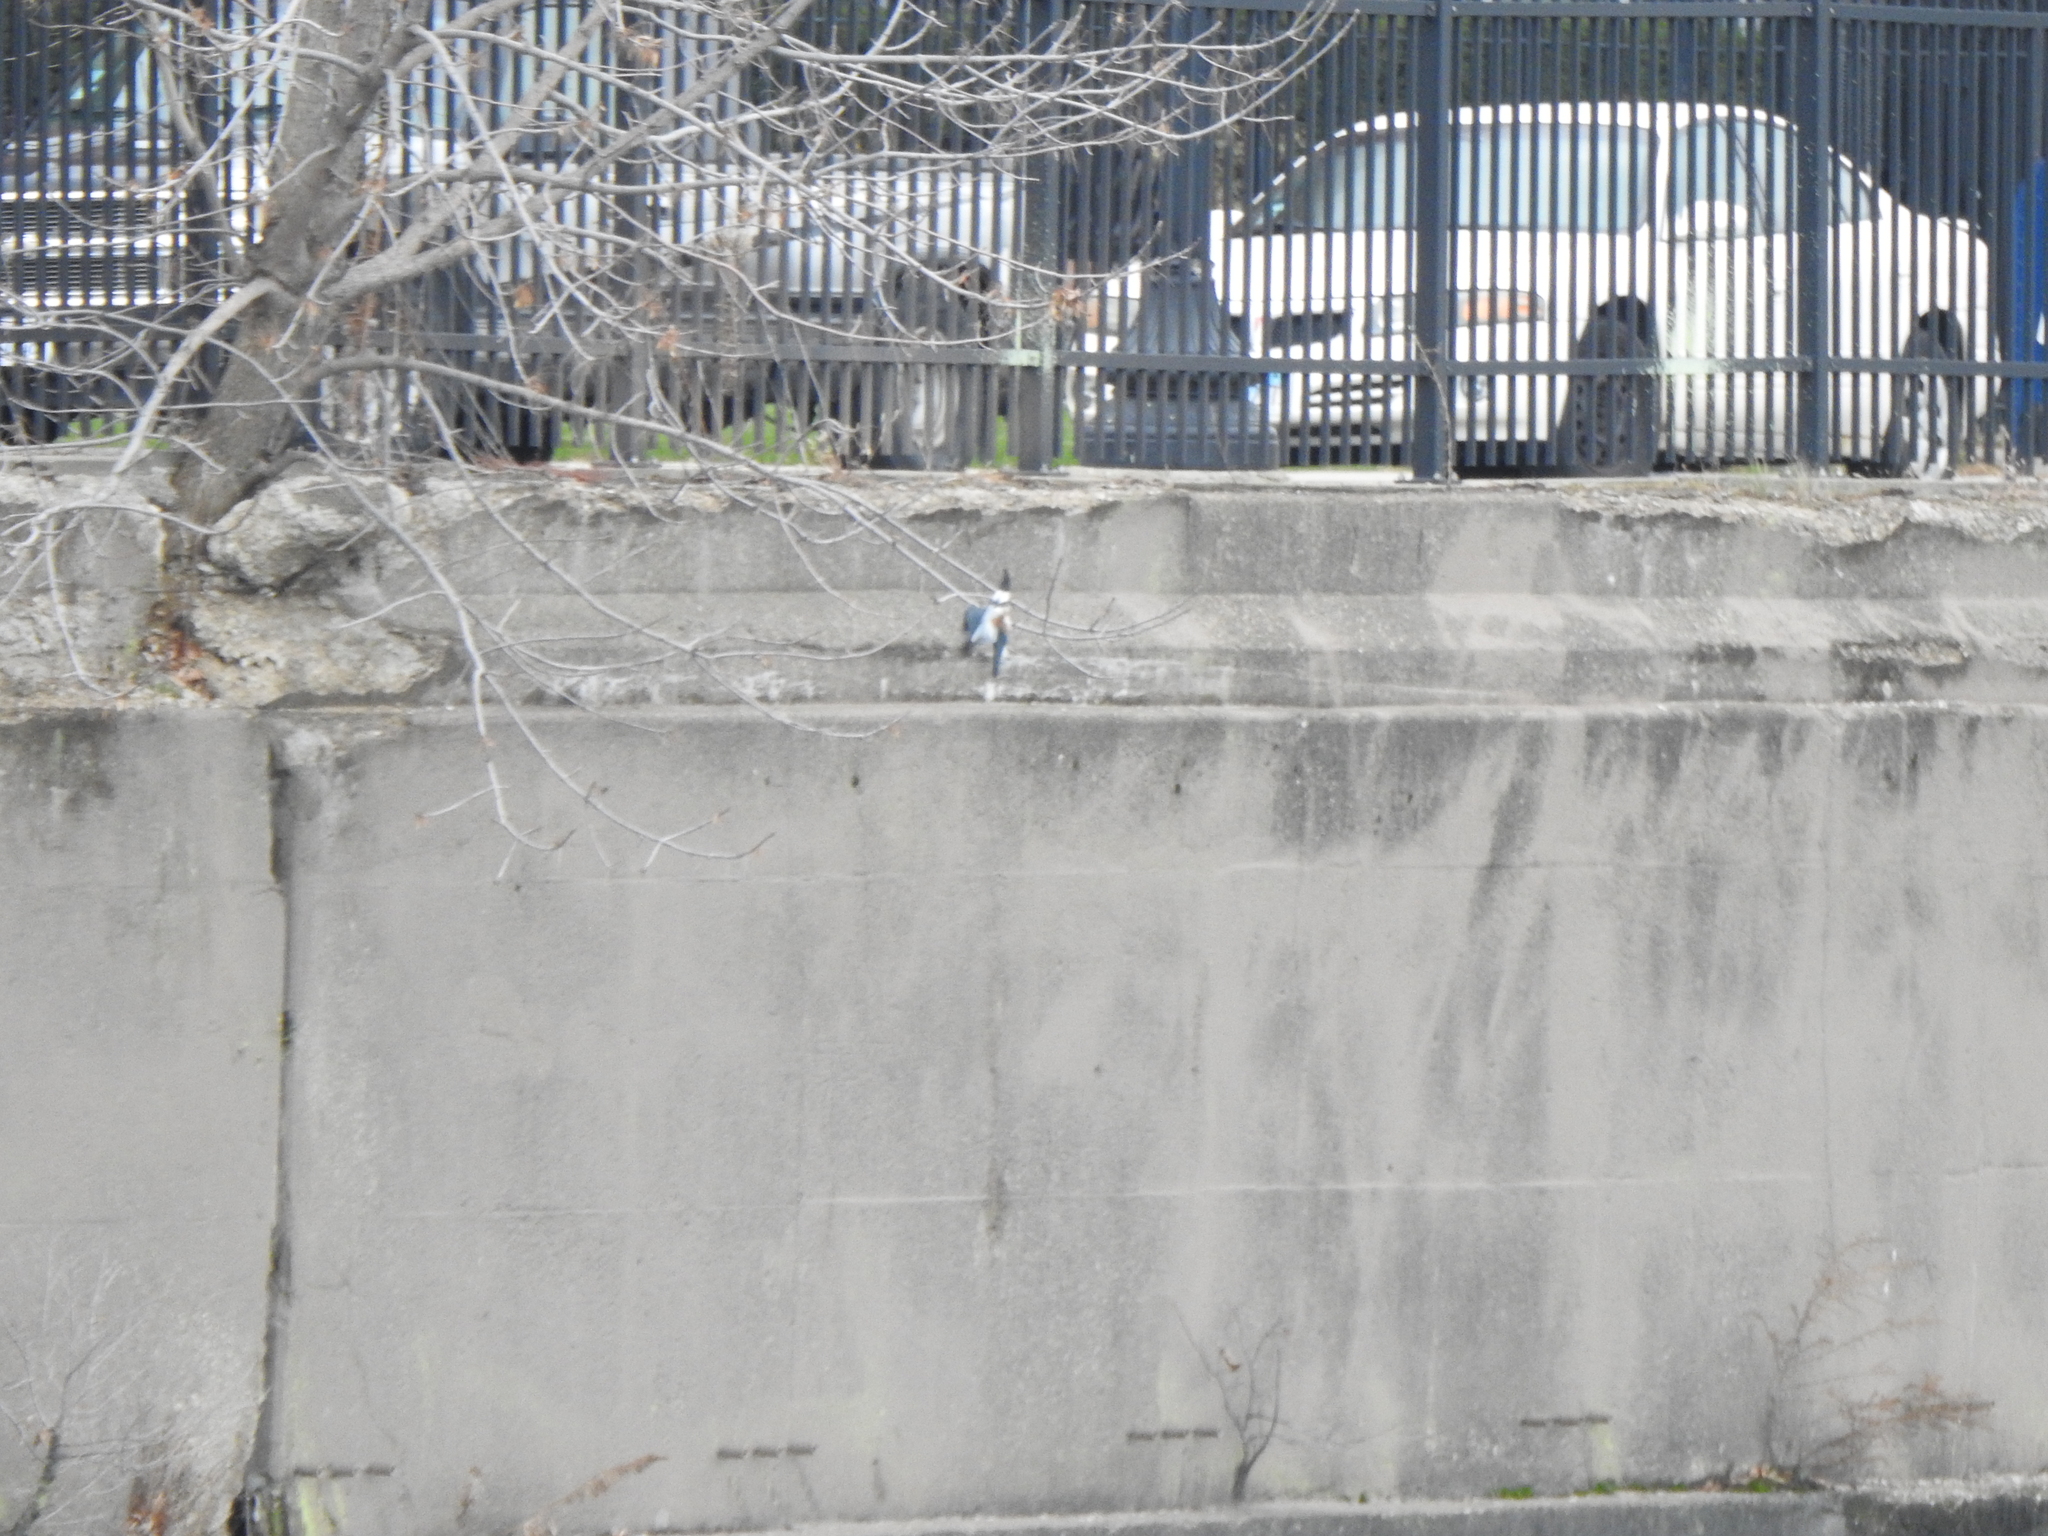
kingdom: Animalia
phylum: Chordata
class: Aves
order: Coraciiformes
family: Alcedinidae
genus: Megaceryle
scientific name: Megaceryle alcyon
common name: Belted kingfisher
